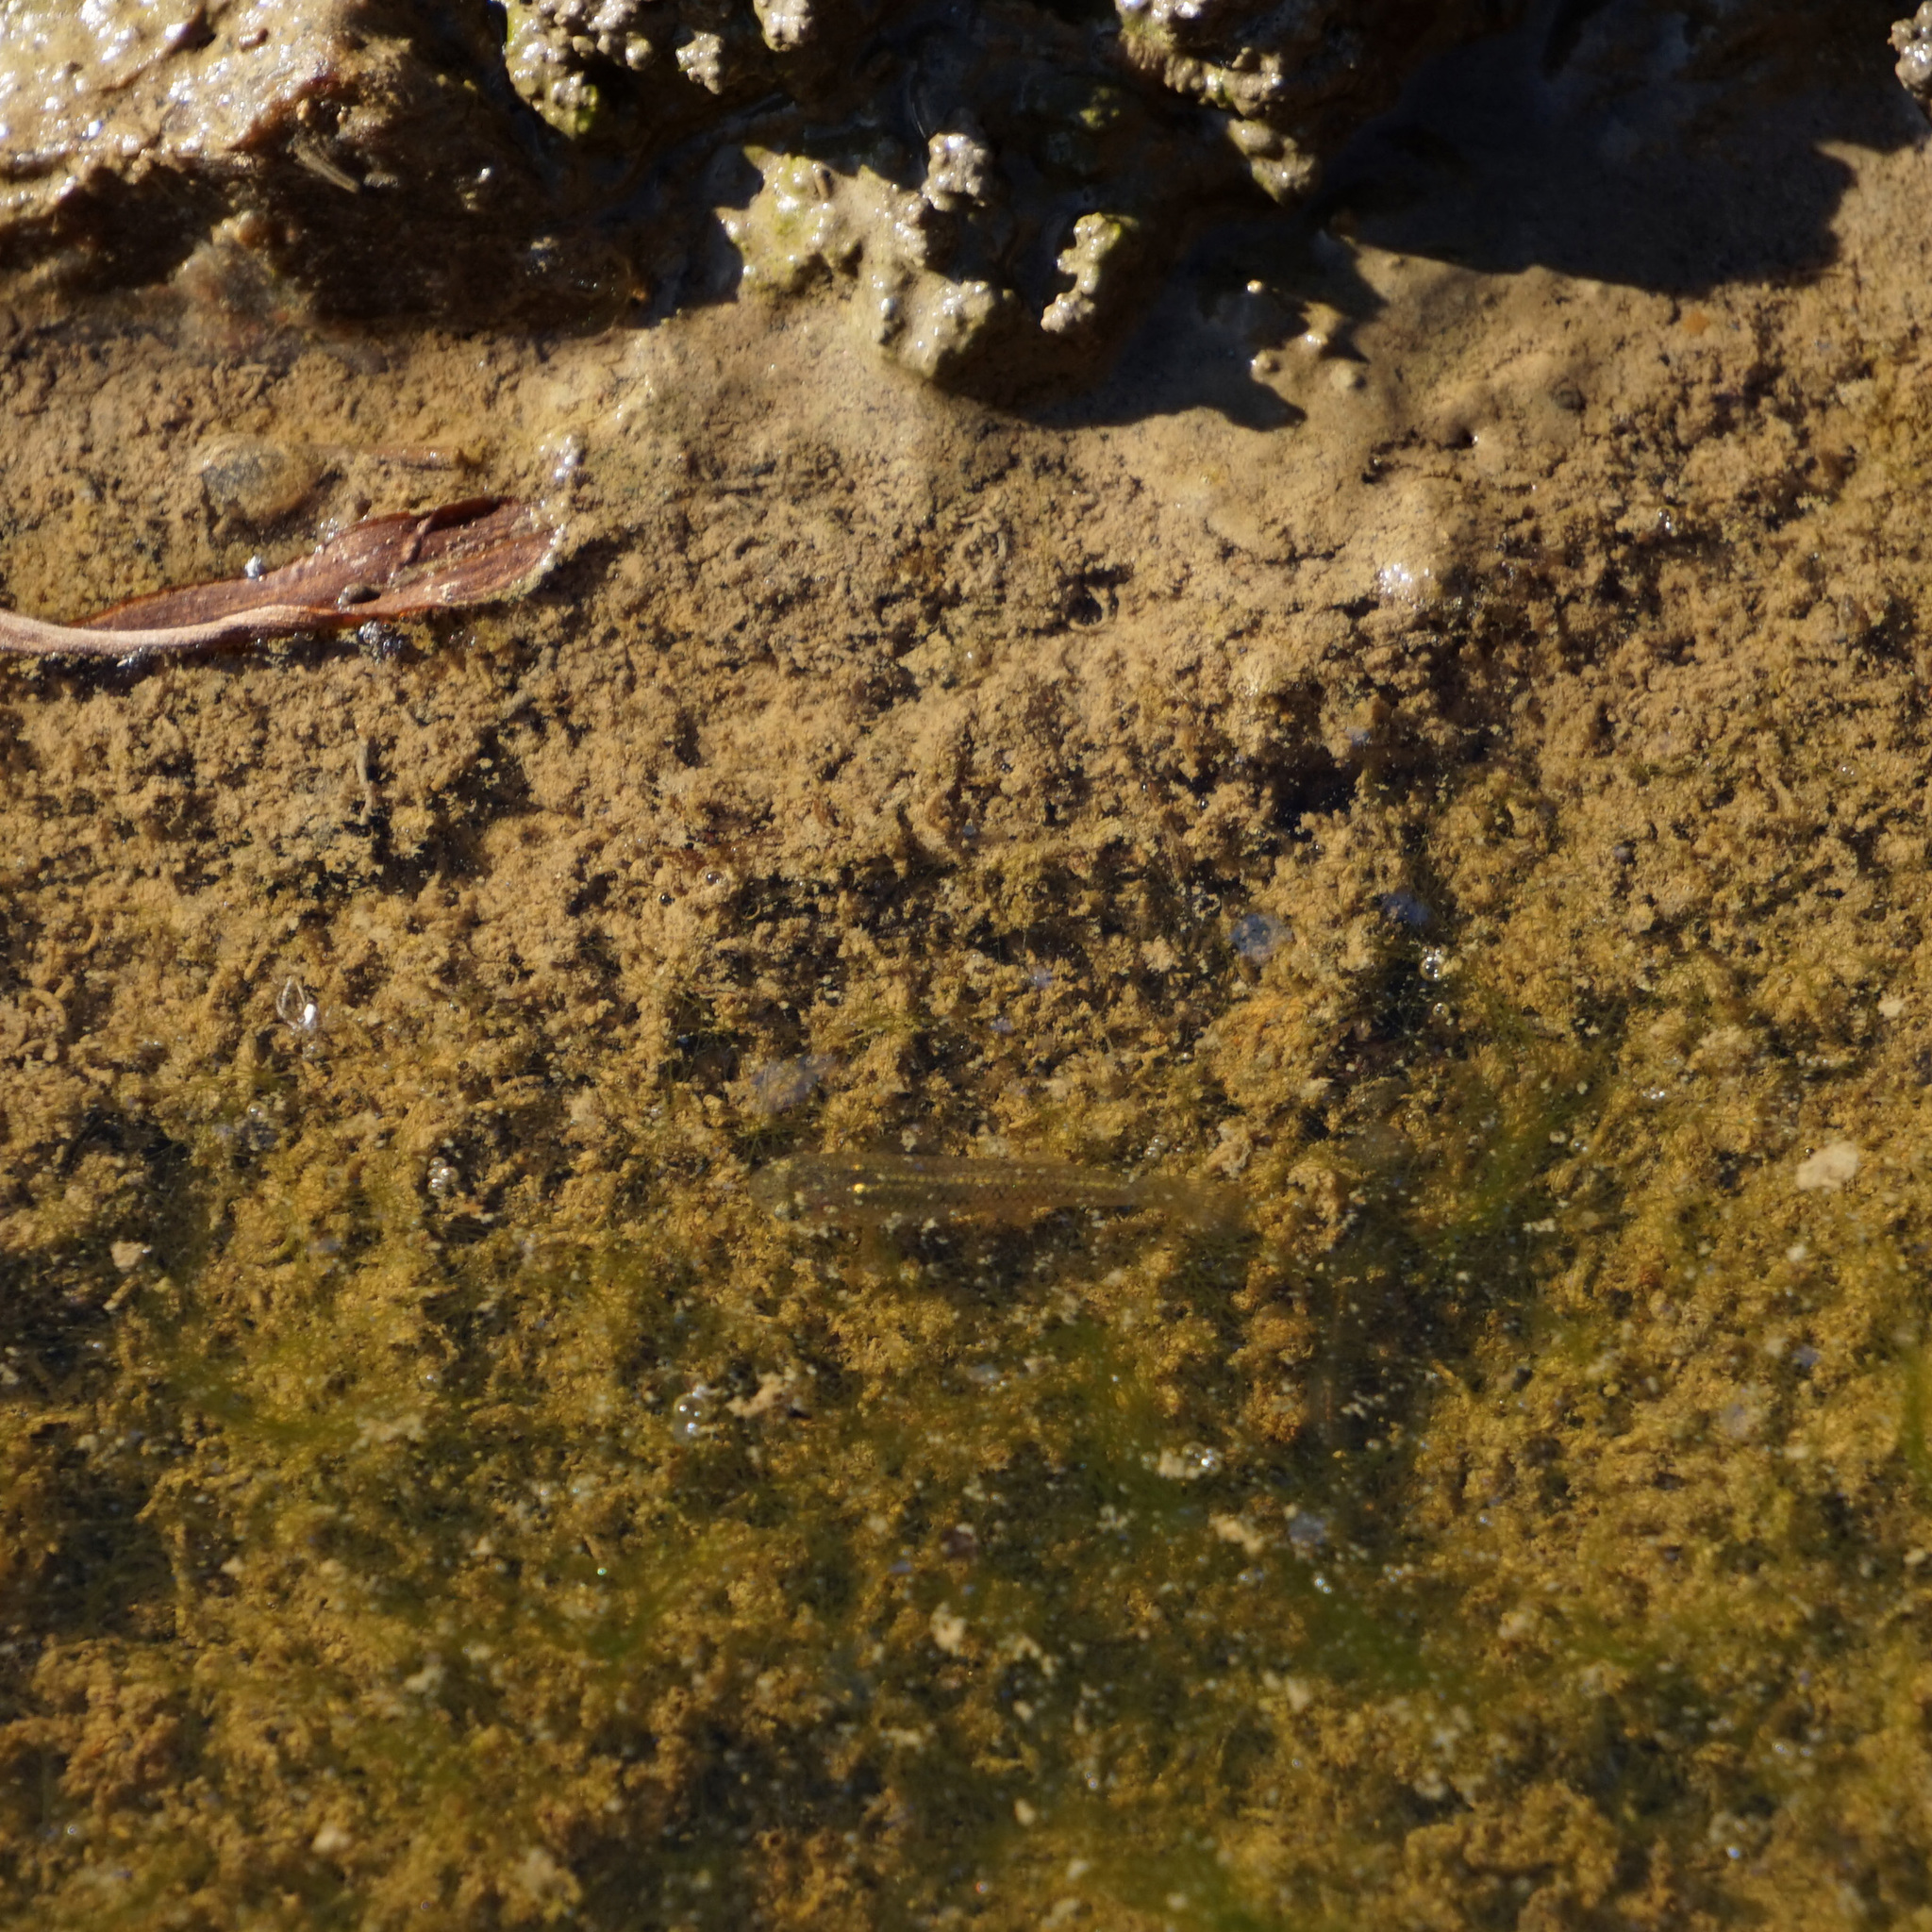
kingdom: Animalia
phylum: Chordata
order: Cyprinodontiformes
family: Poeciliidae
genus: Gambusia
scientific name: Gambusia holbrooki
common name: Eastern mosquitofish
